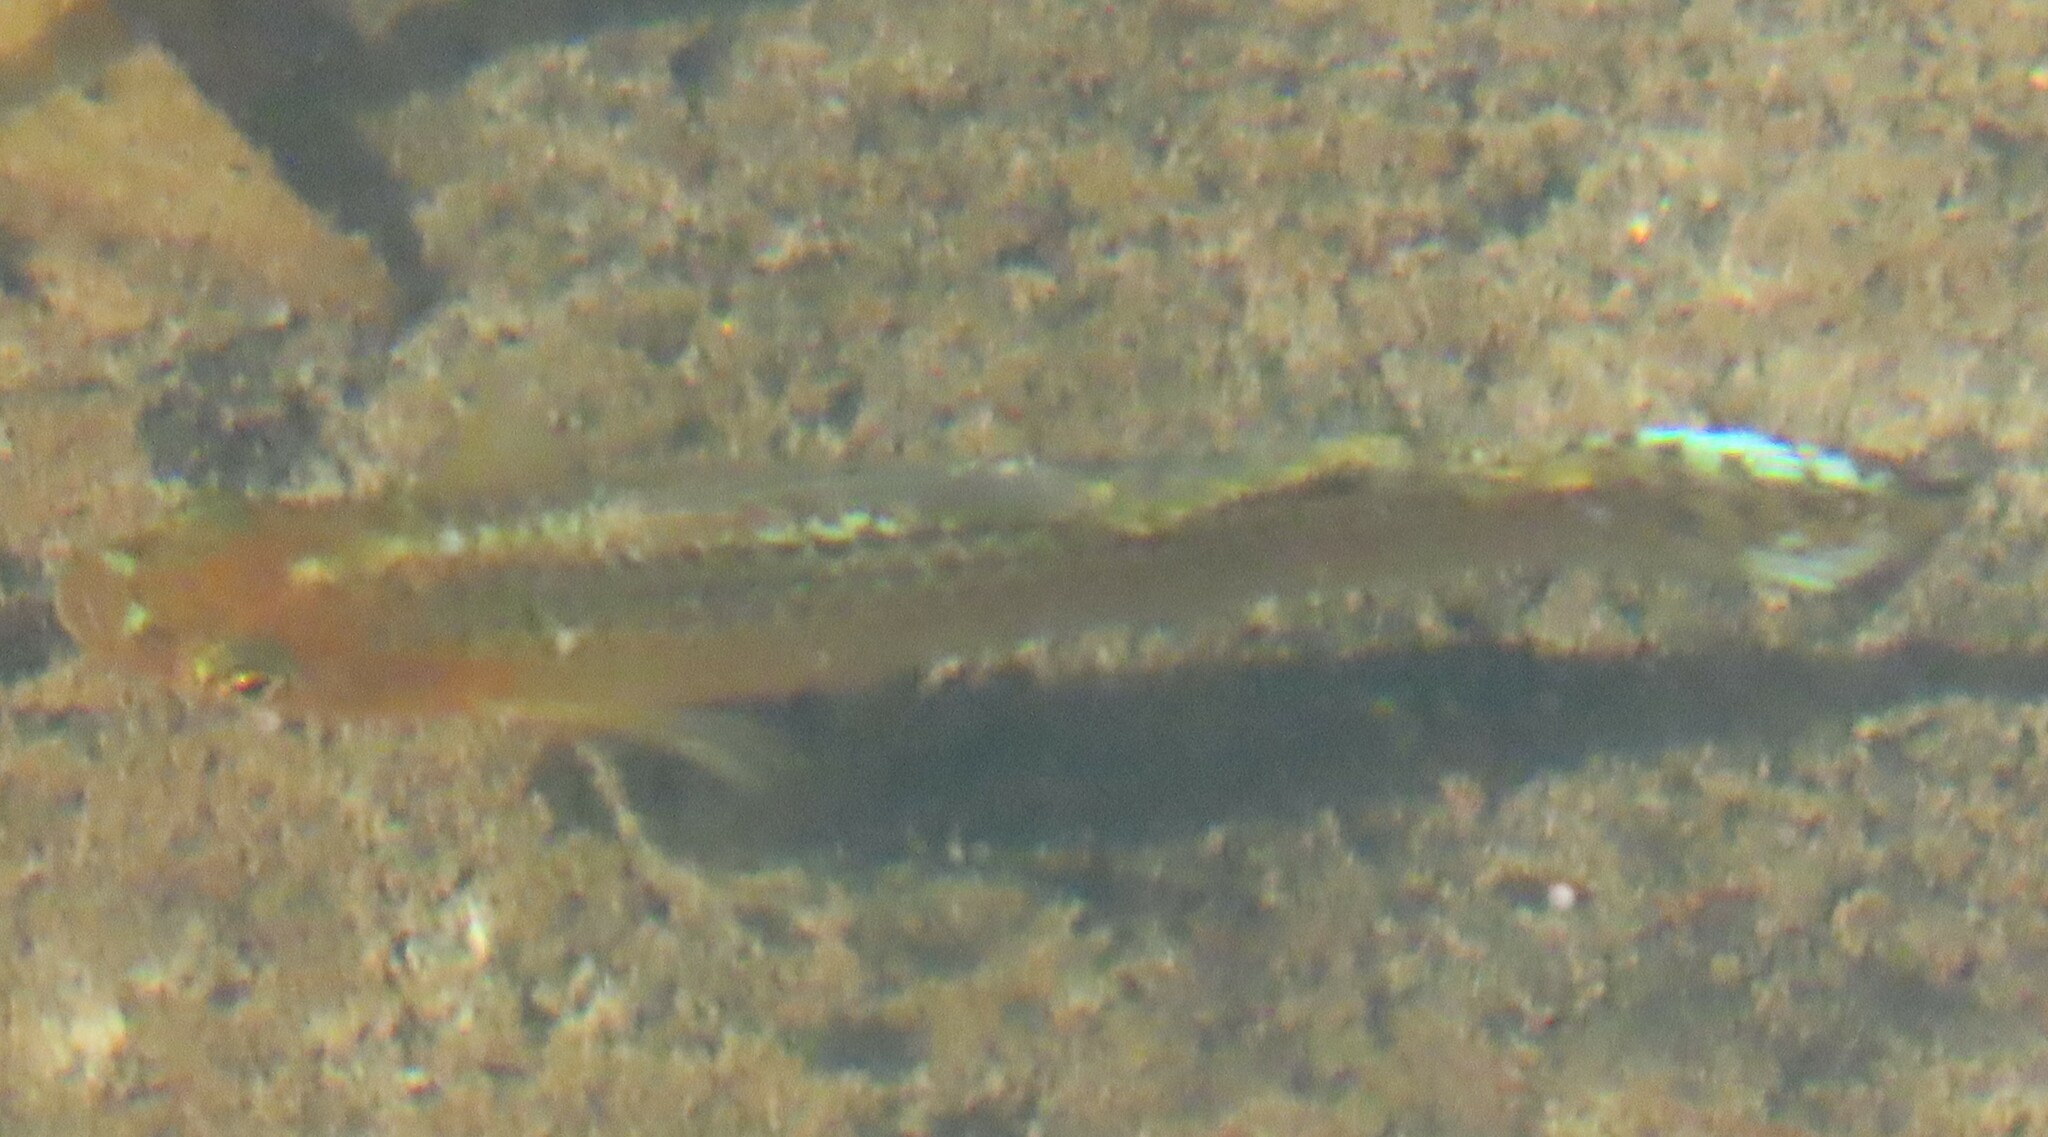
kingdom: Animalia
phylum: Chordata
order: Cyprinodontiformes
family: Poeciliidae
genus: Poecilia
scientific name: Poecilia latipinna
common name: Sailfin molly
